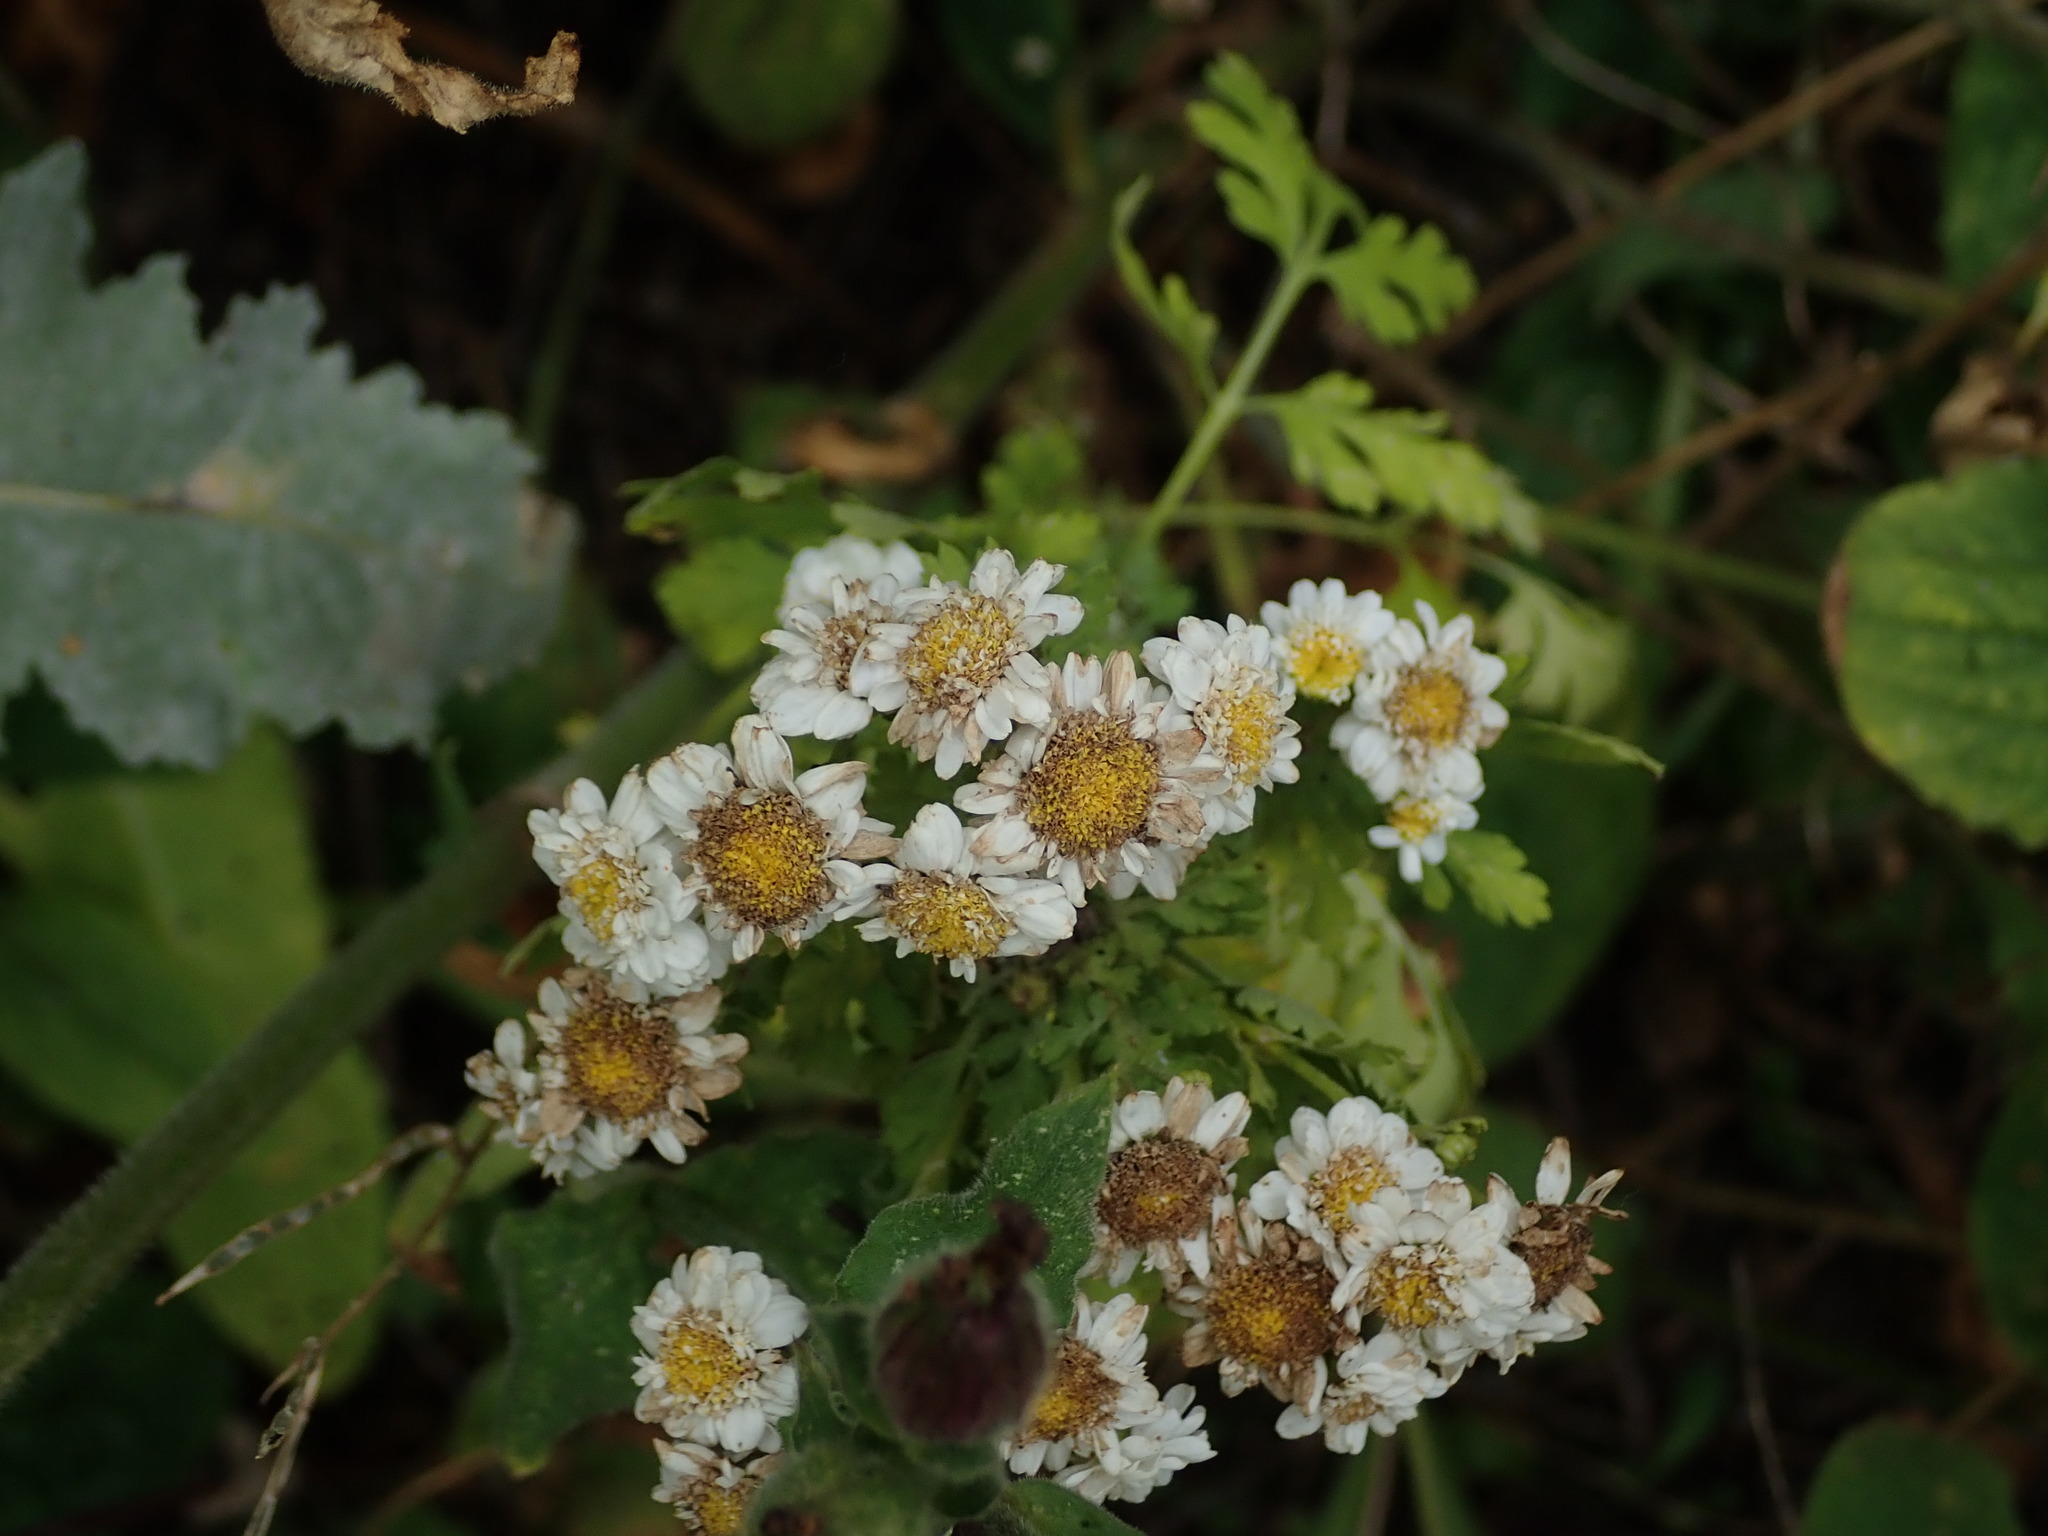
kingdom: Plantae
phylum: Tracheophyta
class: Magnoliopsida
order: Asterales
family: Asteraceae
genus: Tanacetum
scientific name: Tanacetum parthenium
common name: Feverfew
